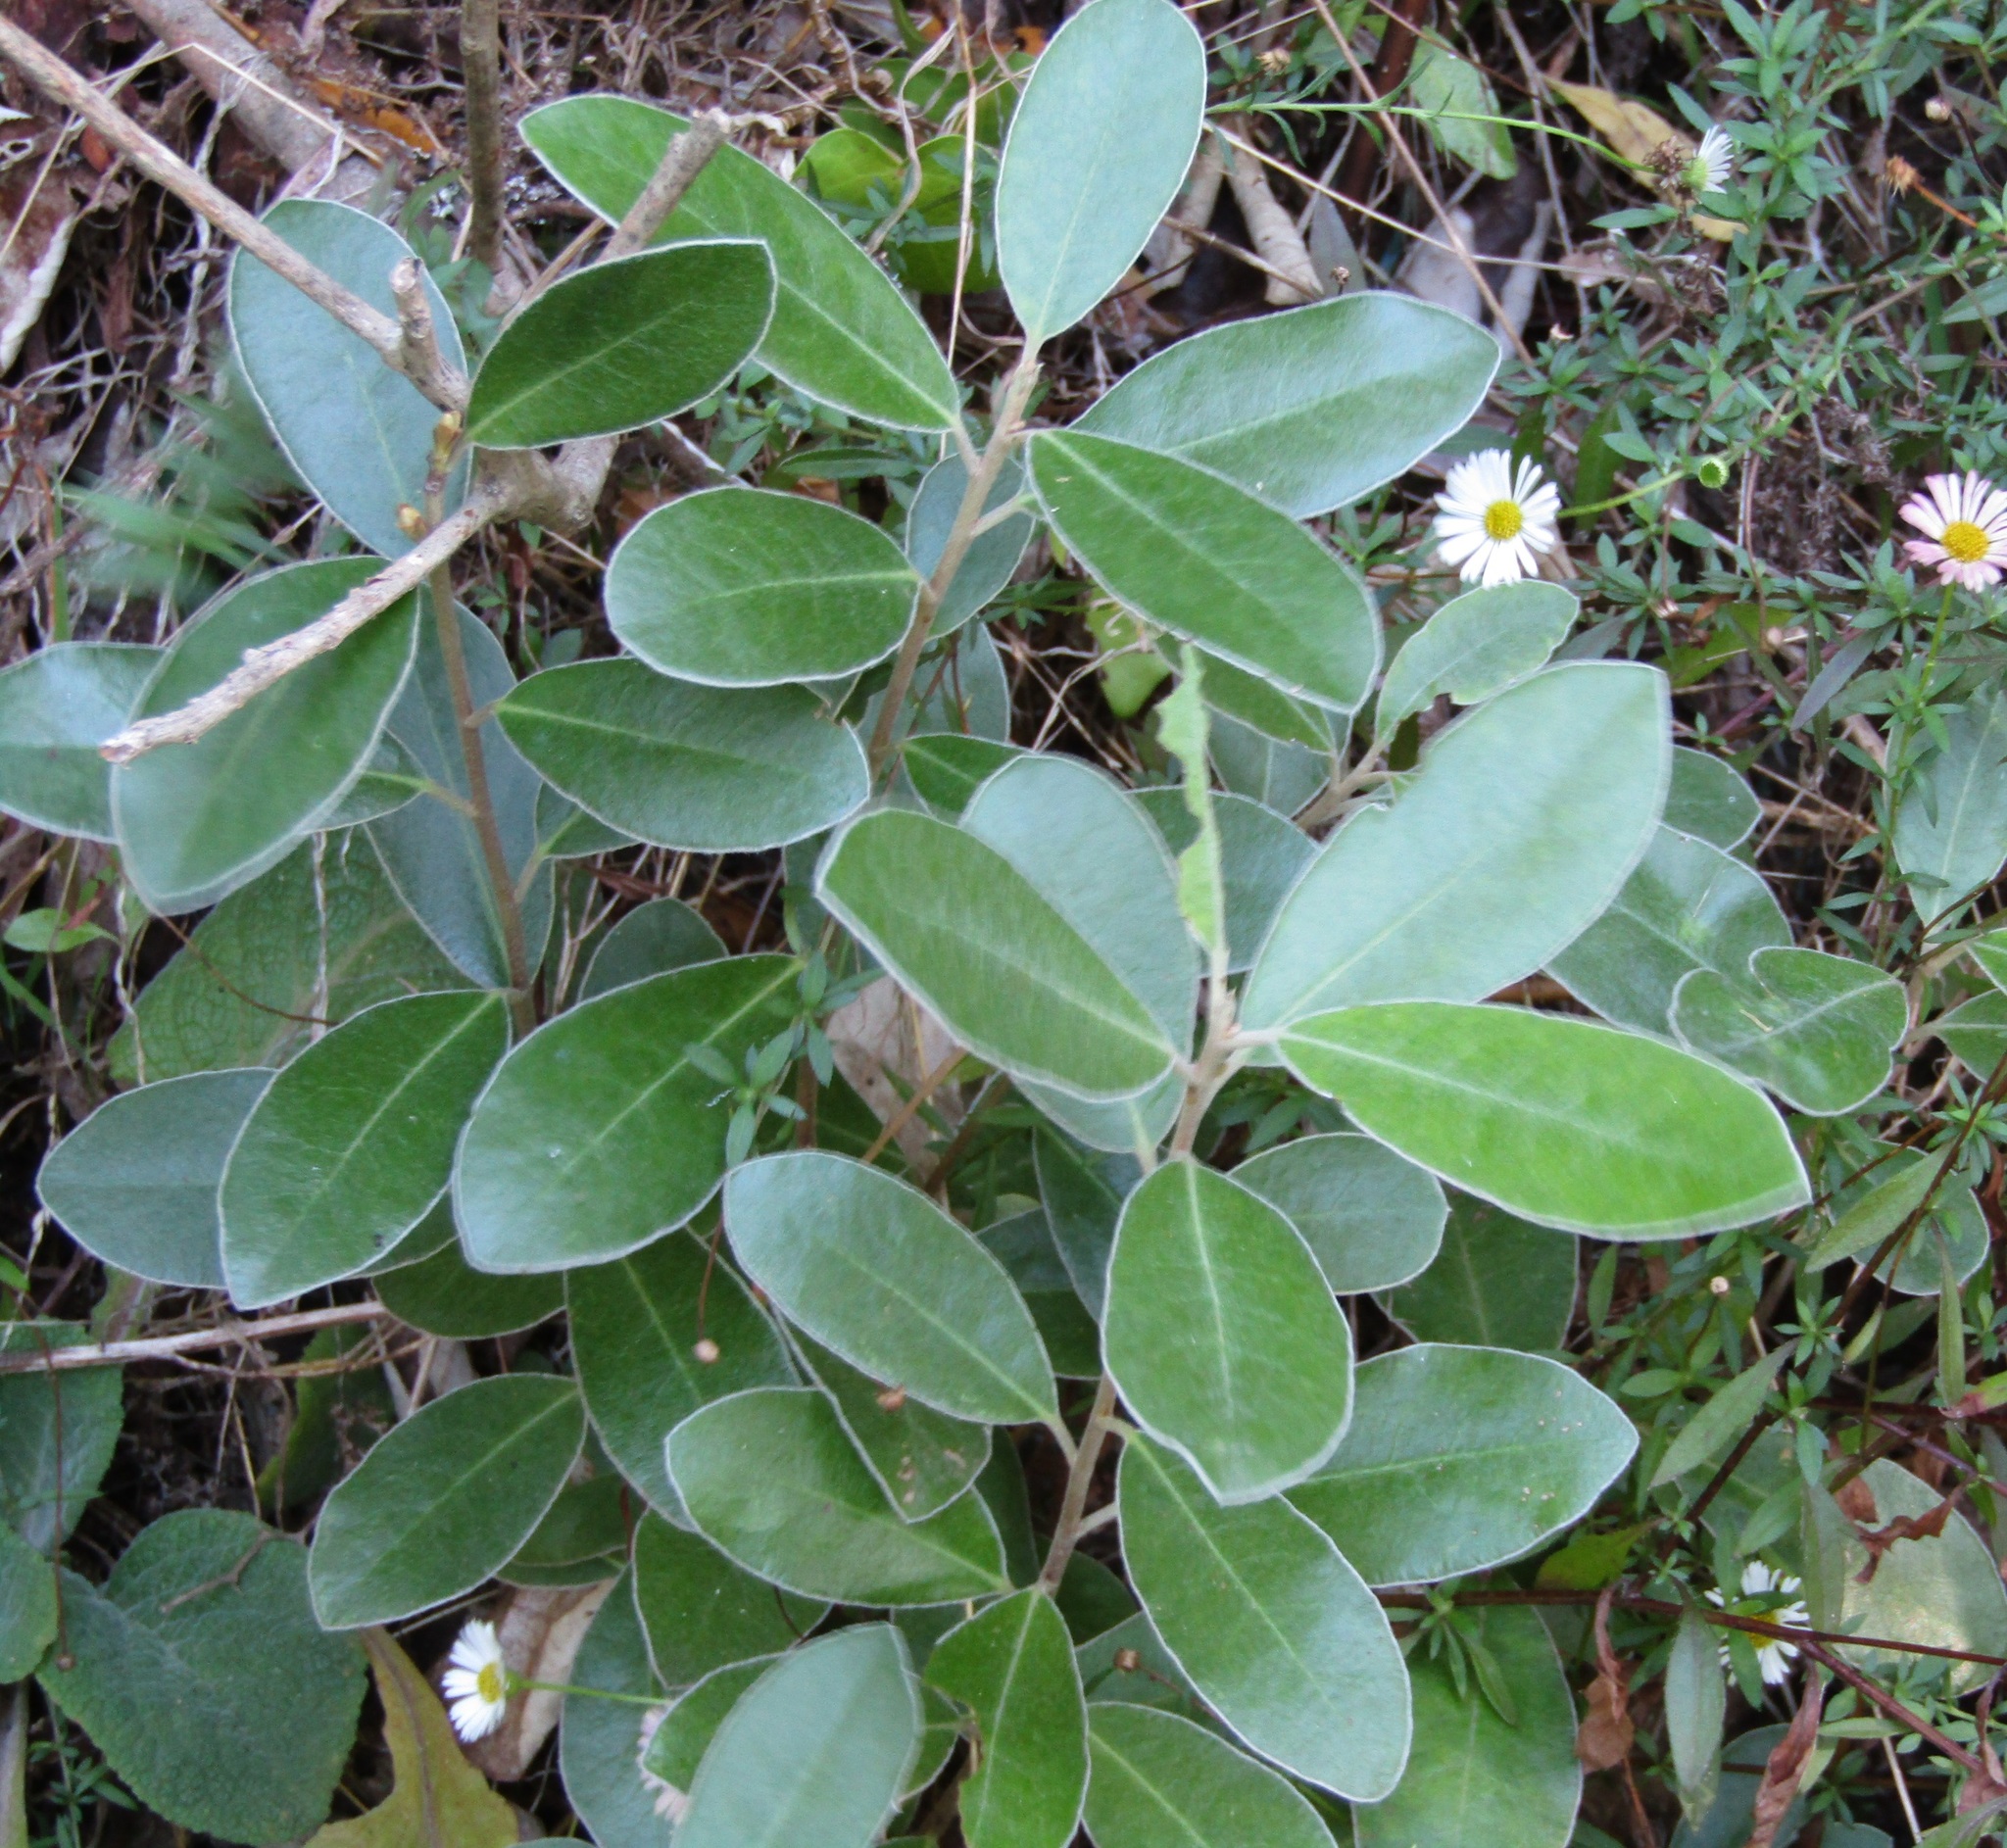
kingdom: Plantae
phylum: Tracheophyta
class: Magnoliopsida
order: Apiales
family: Pittosporaceae
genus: Pittosporum
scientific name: Pittosporum ralphii
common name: Ralph's desertwillow
